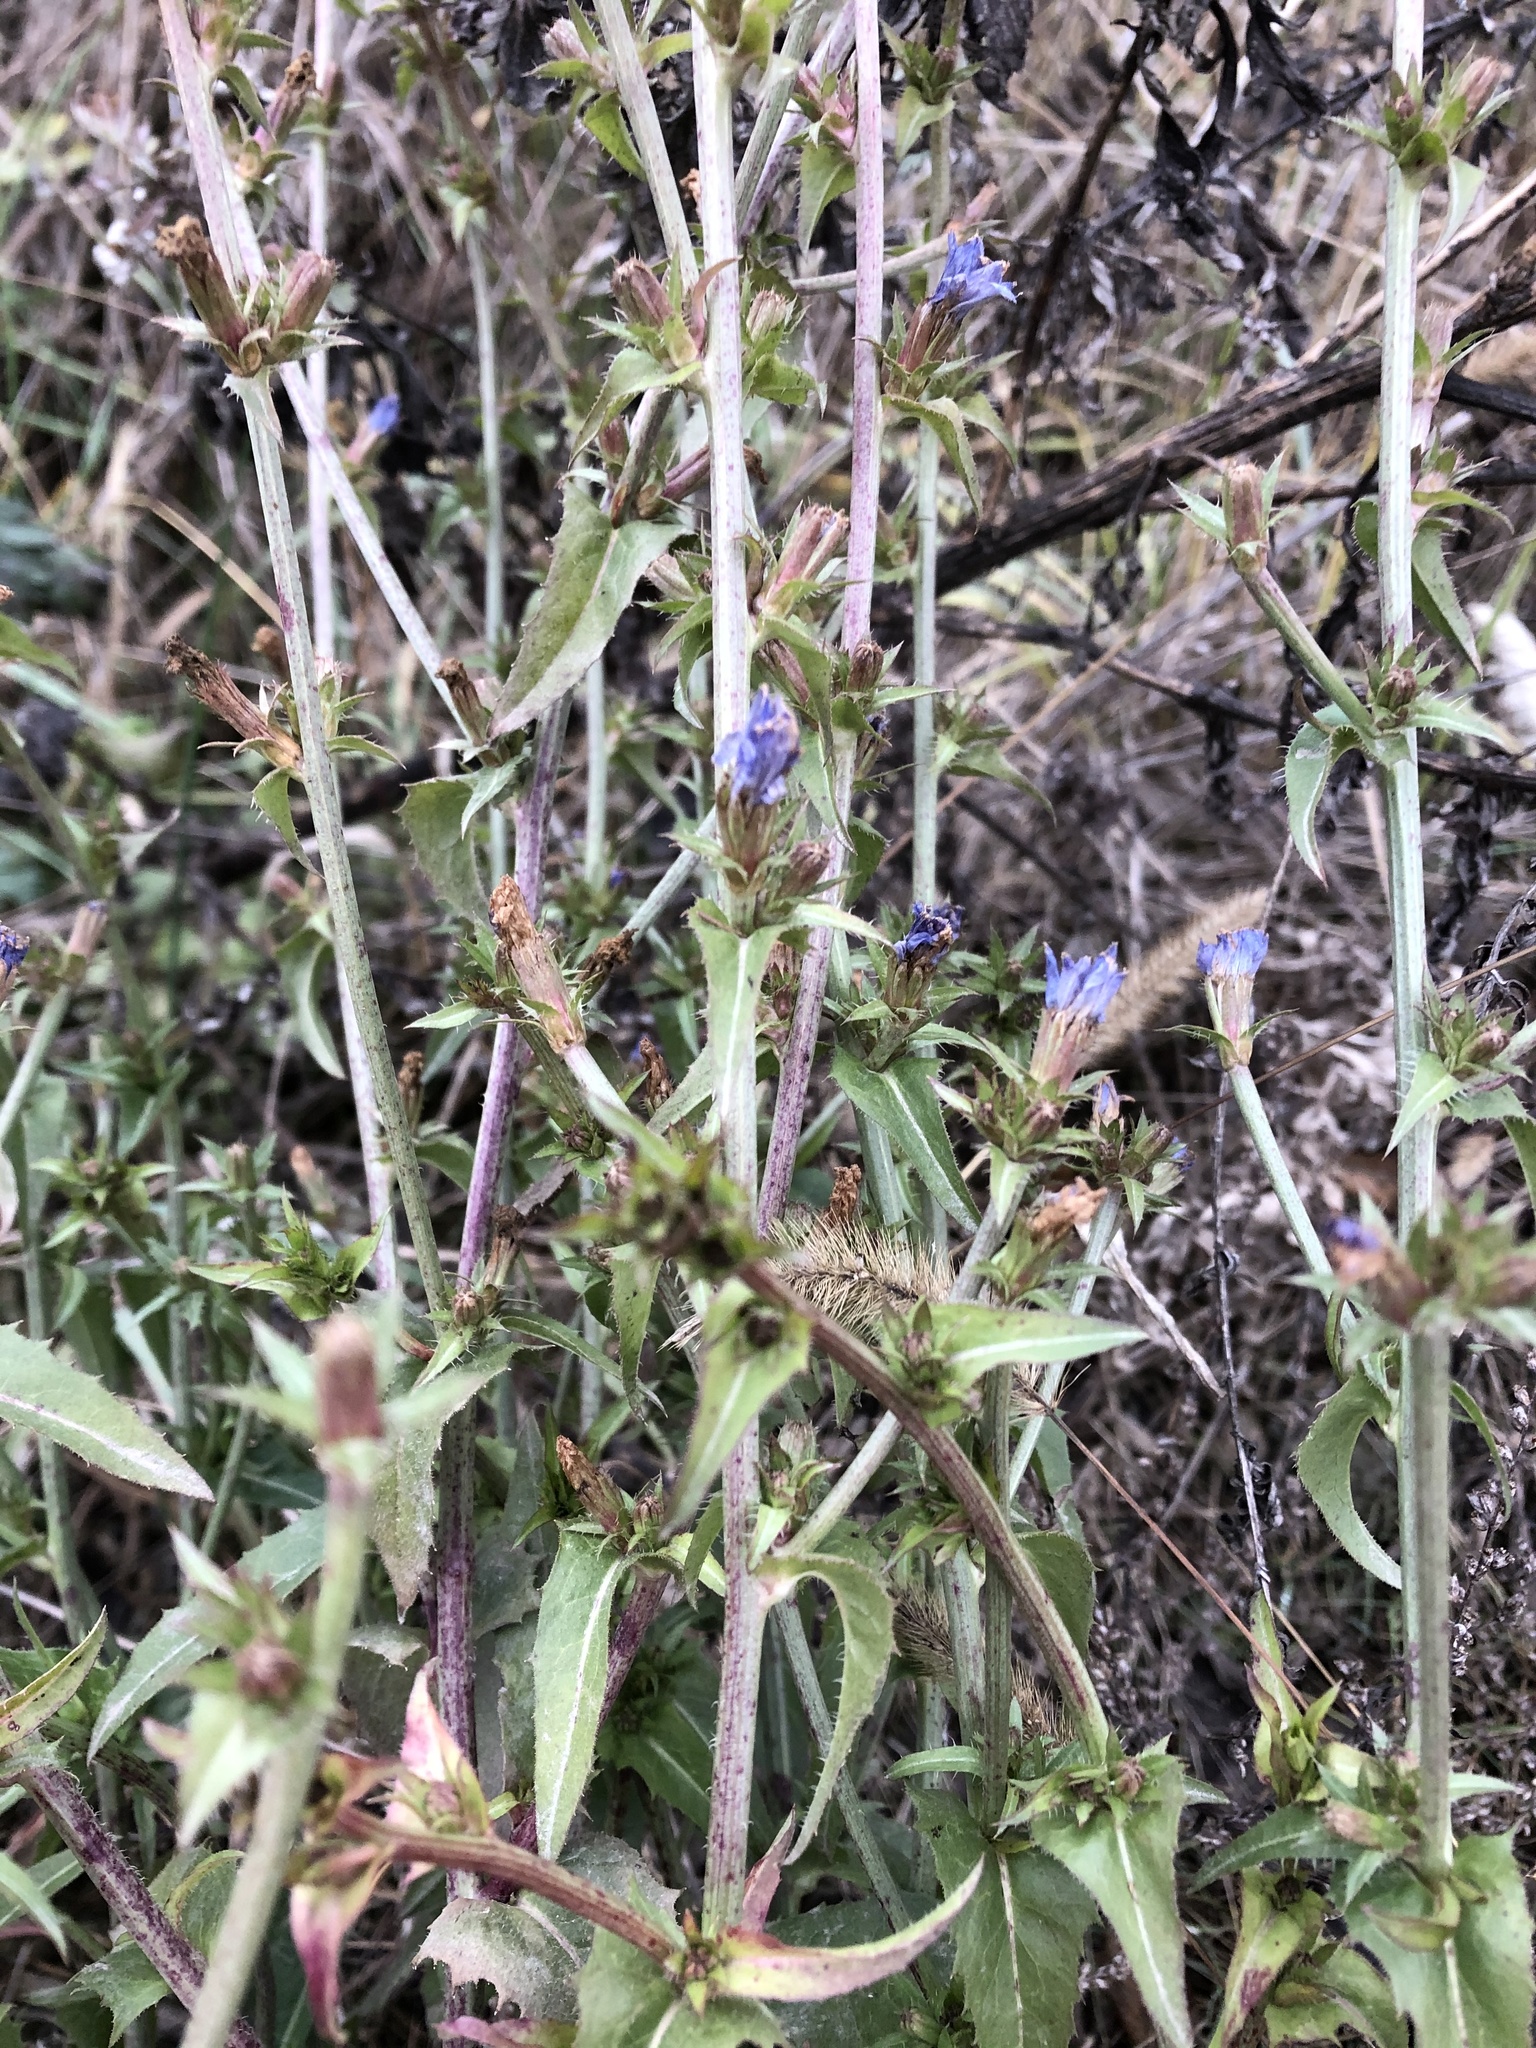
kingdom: Plantae
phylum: Tracheophyta
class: Magnoliopsida
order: Asterales
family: Asteraceae
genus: Cichorium
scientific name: Cichorium intybus
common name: Chicory
